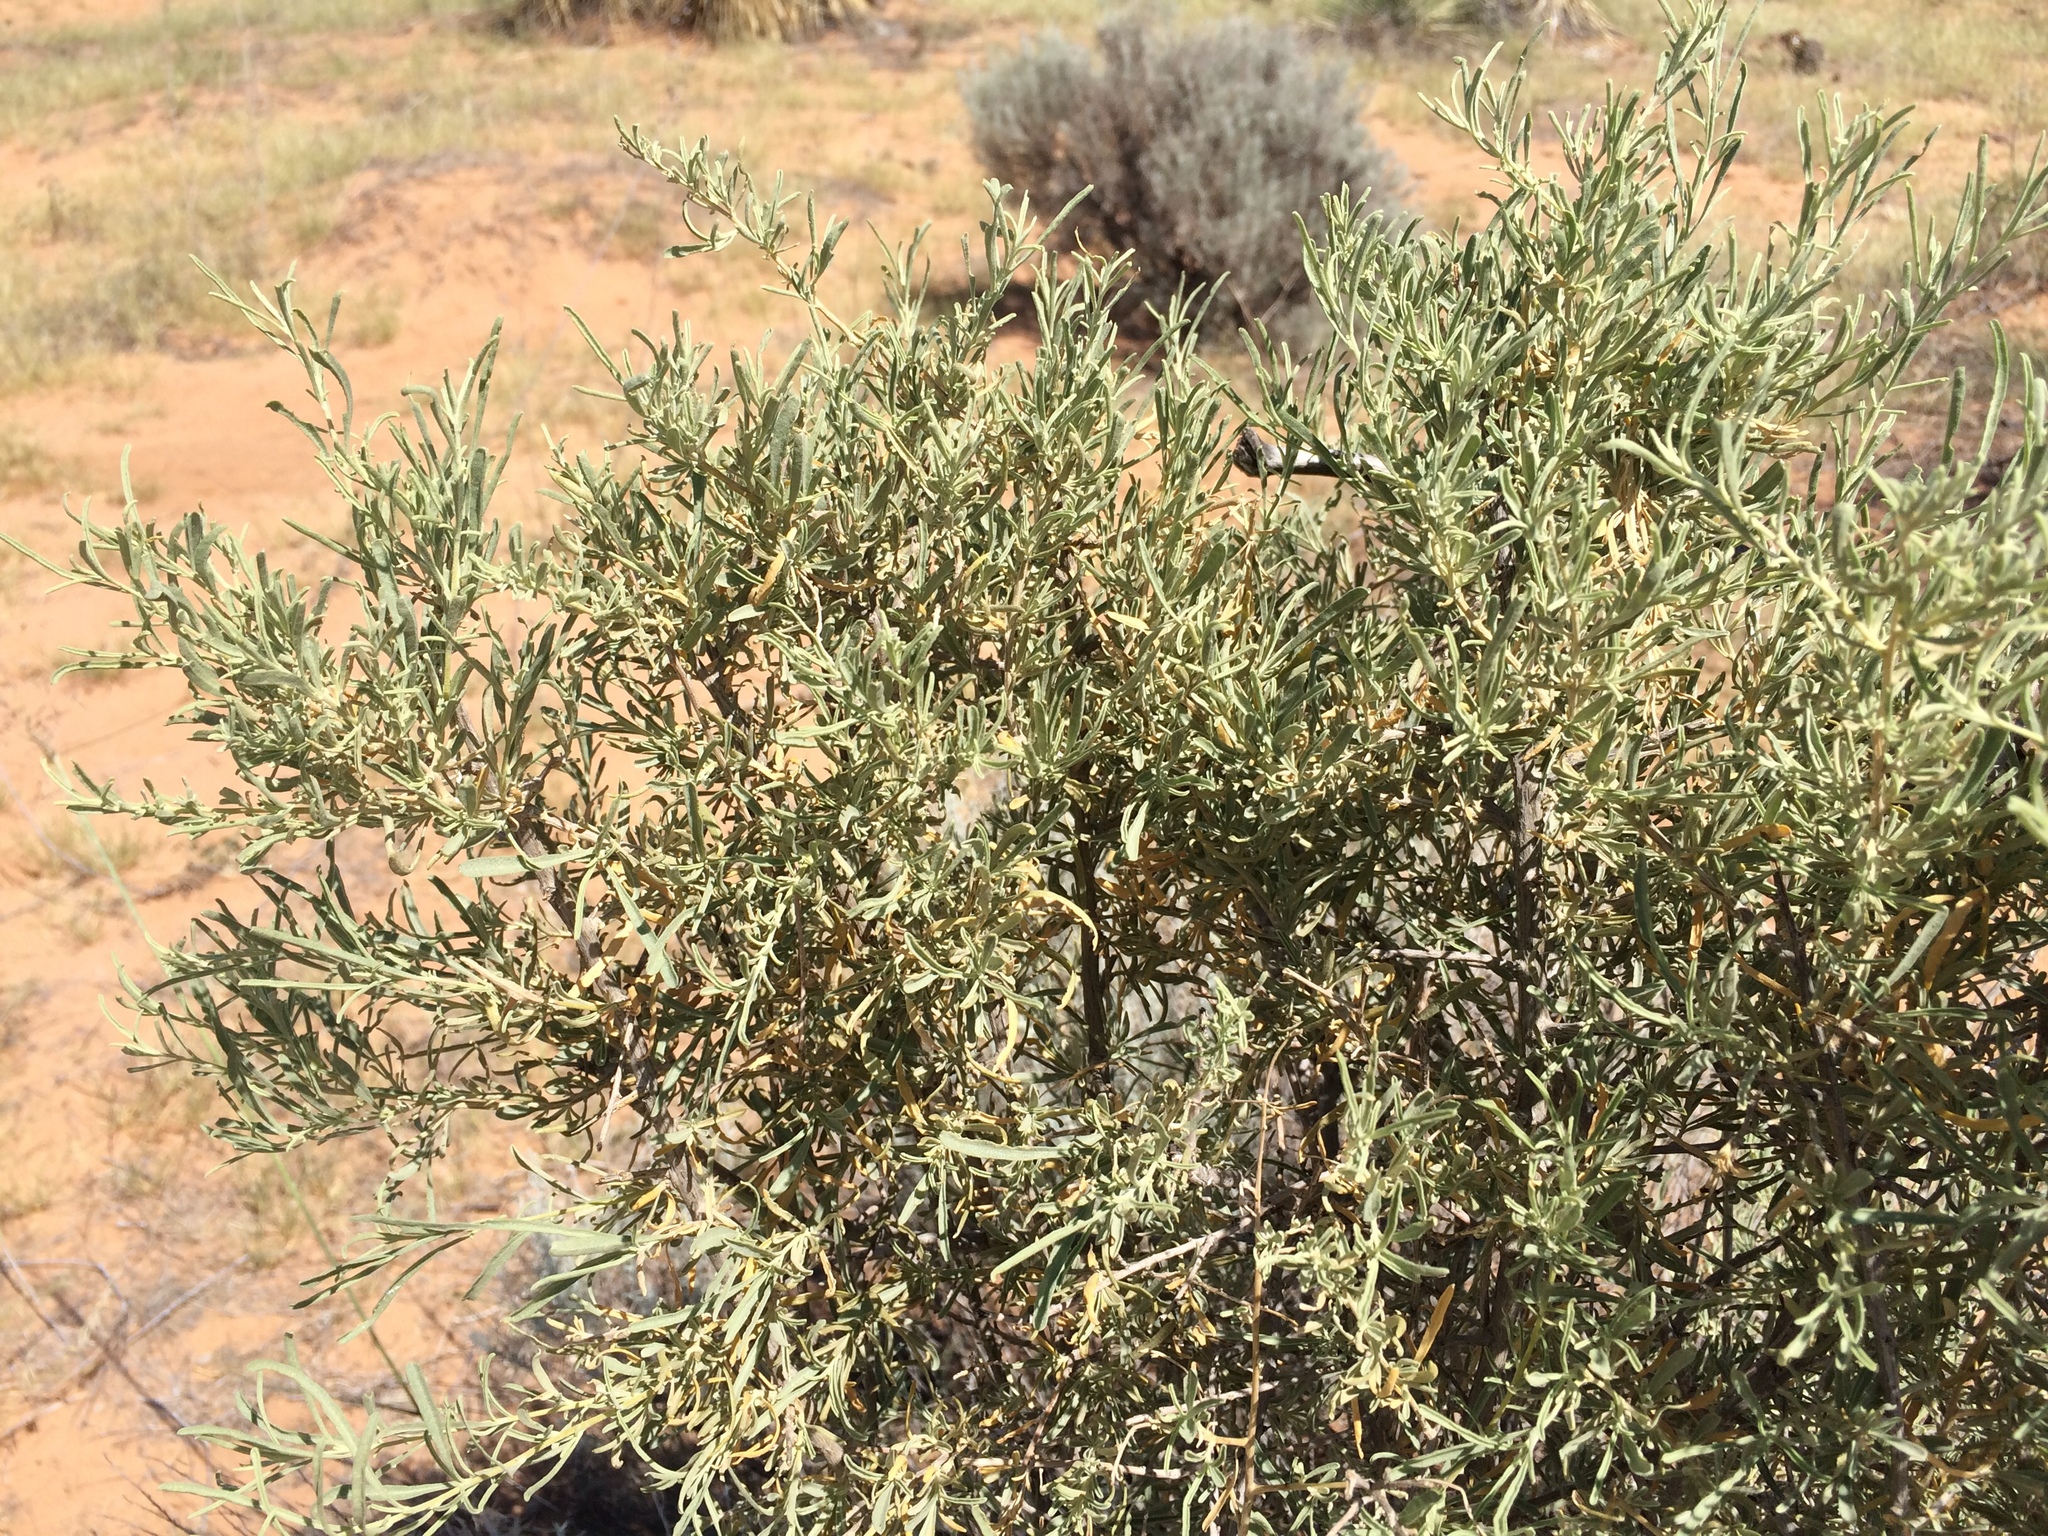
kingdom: Plantae
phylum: Tracheophyta
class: Magnoliopsida
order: Caryophyllales
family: Amaranthaceae
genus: Atriplex
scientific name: Atriplex canescens
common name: Four-wing saltbush
